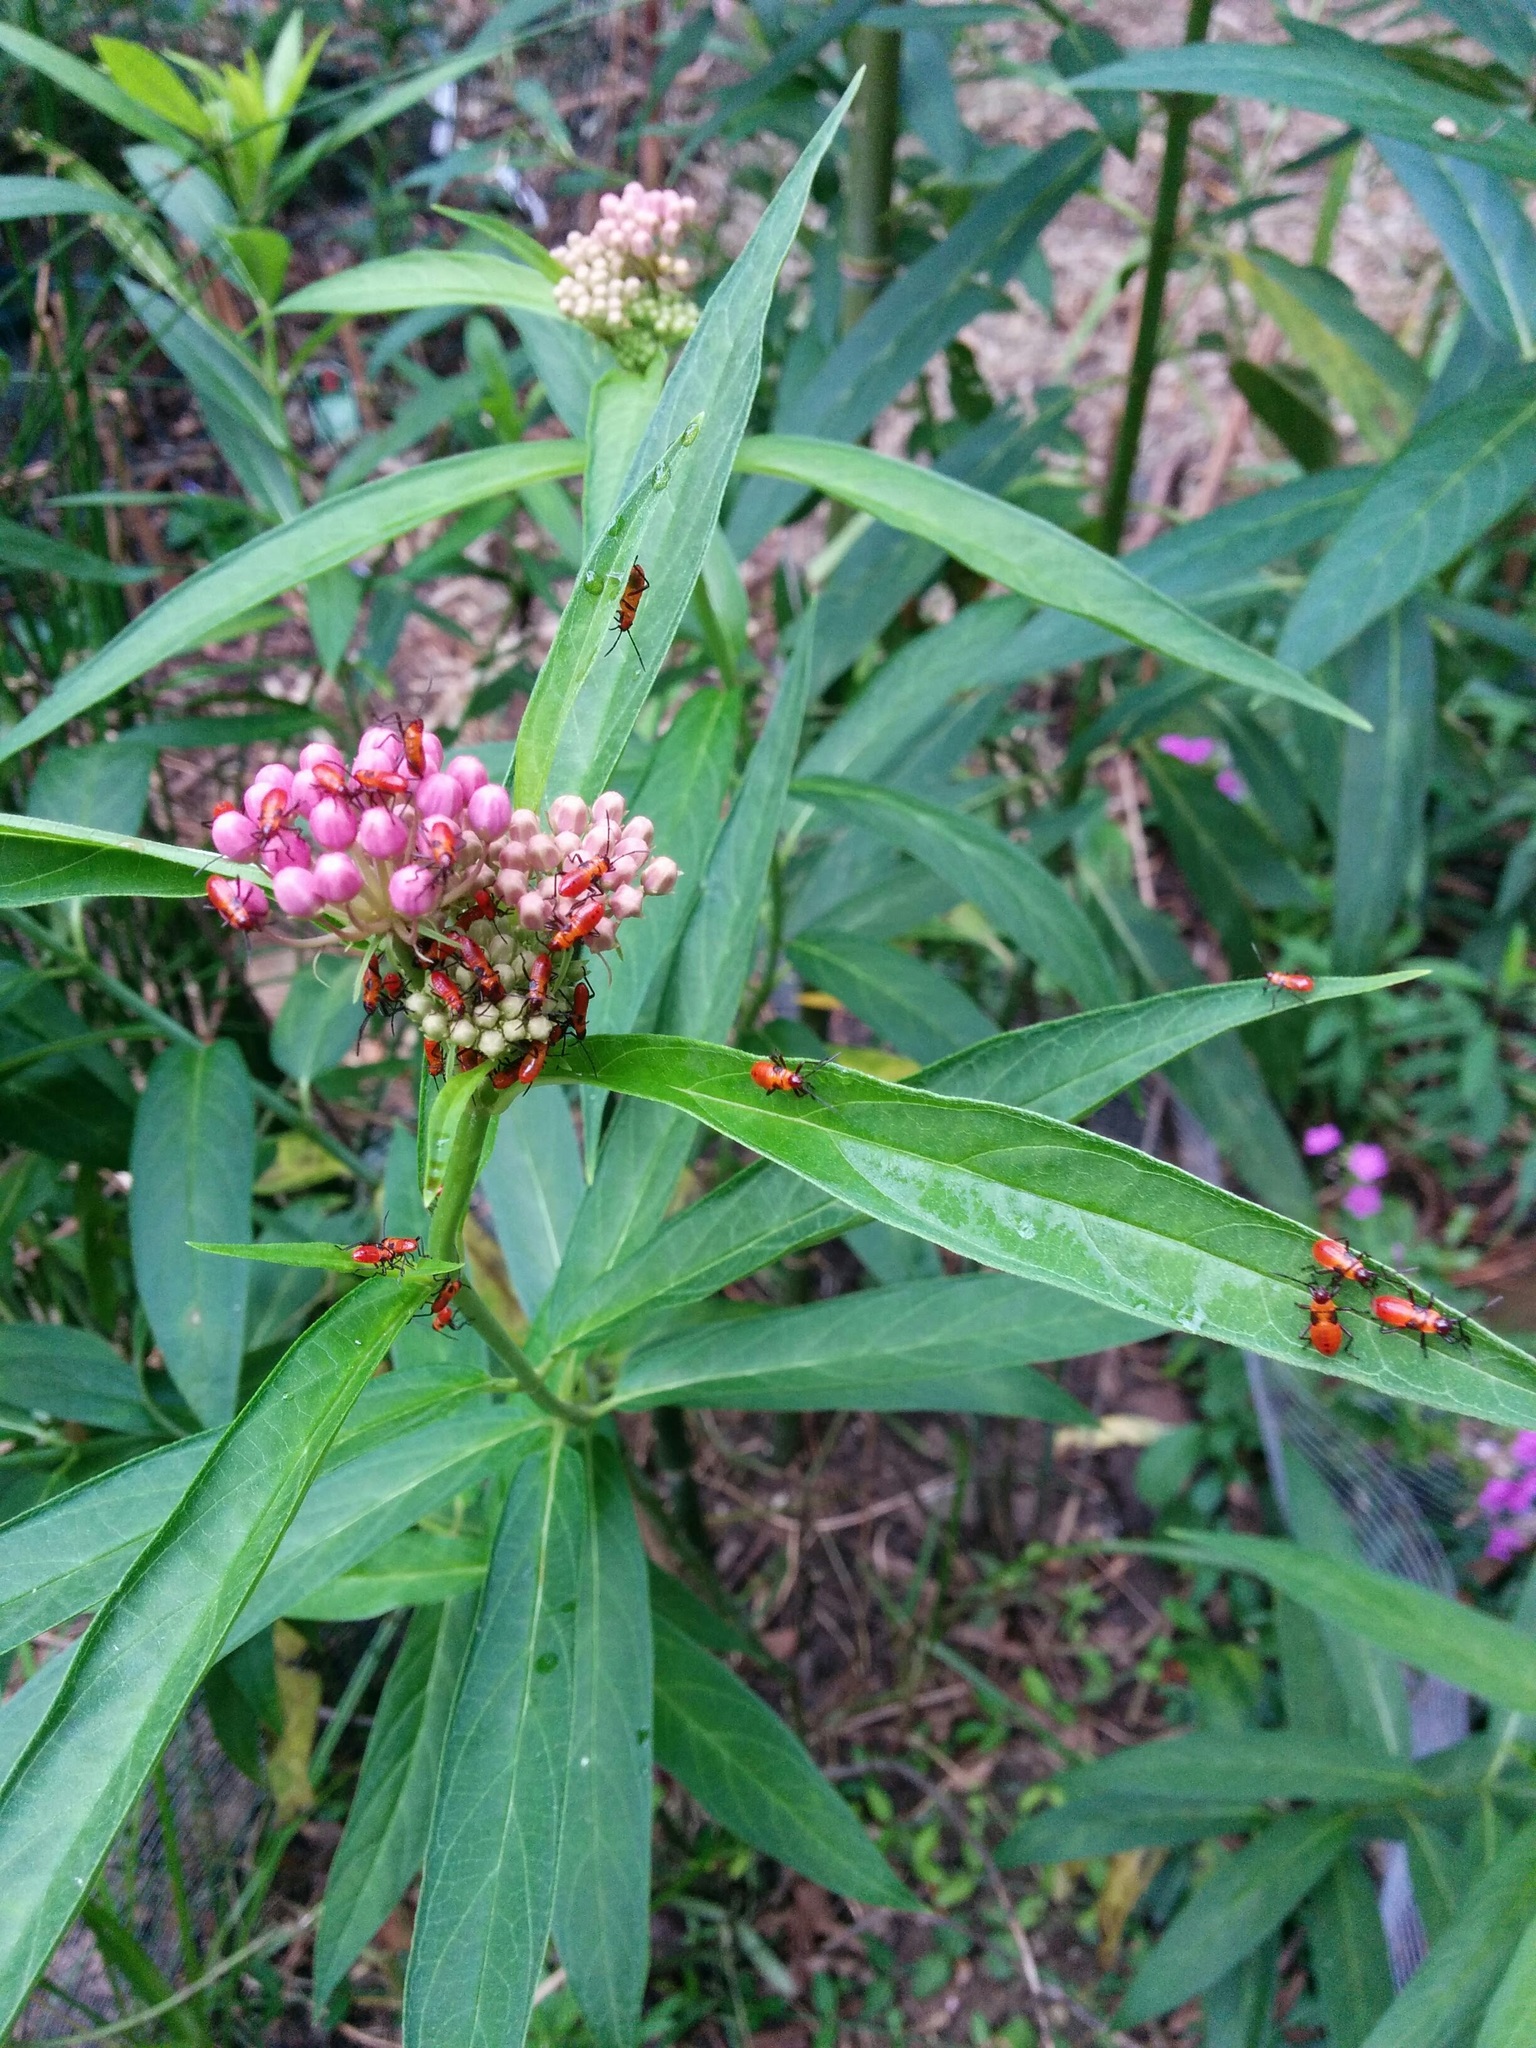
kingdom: Animalia
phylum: Arthropoda
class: Insecta
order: Hemiptera
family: Lygaeidae
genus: Oncopeltus
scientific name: Oncopeltus fasciatus
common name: Large milkweed bug
